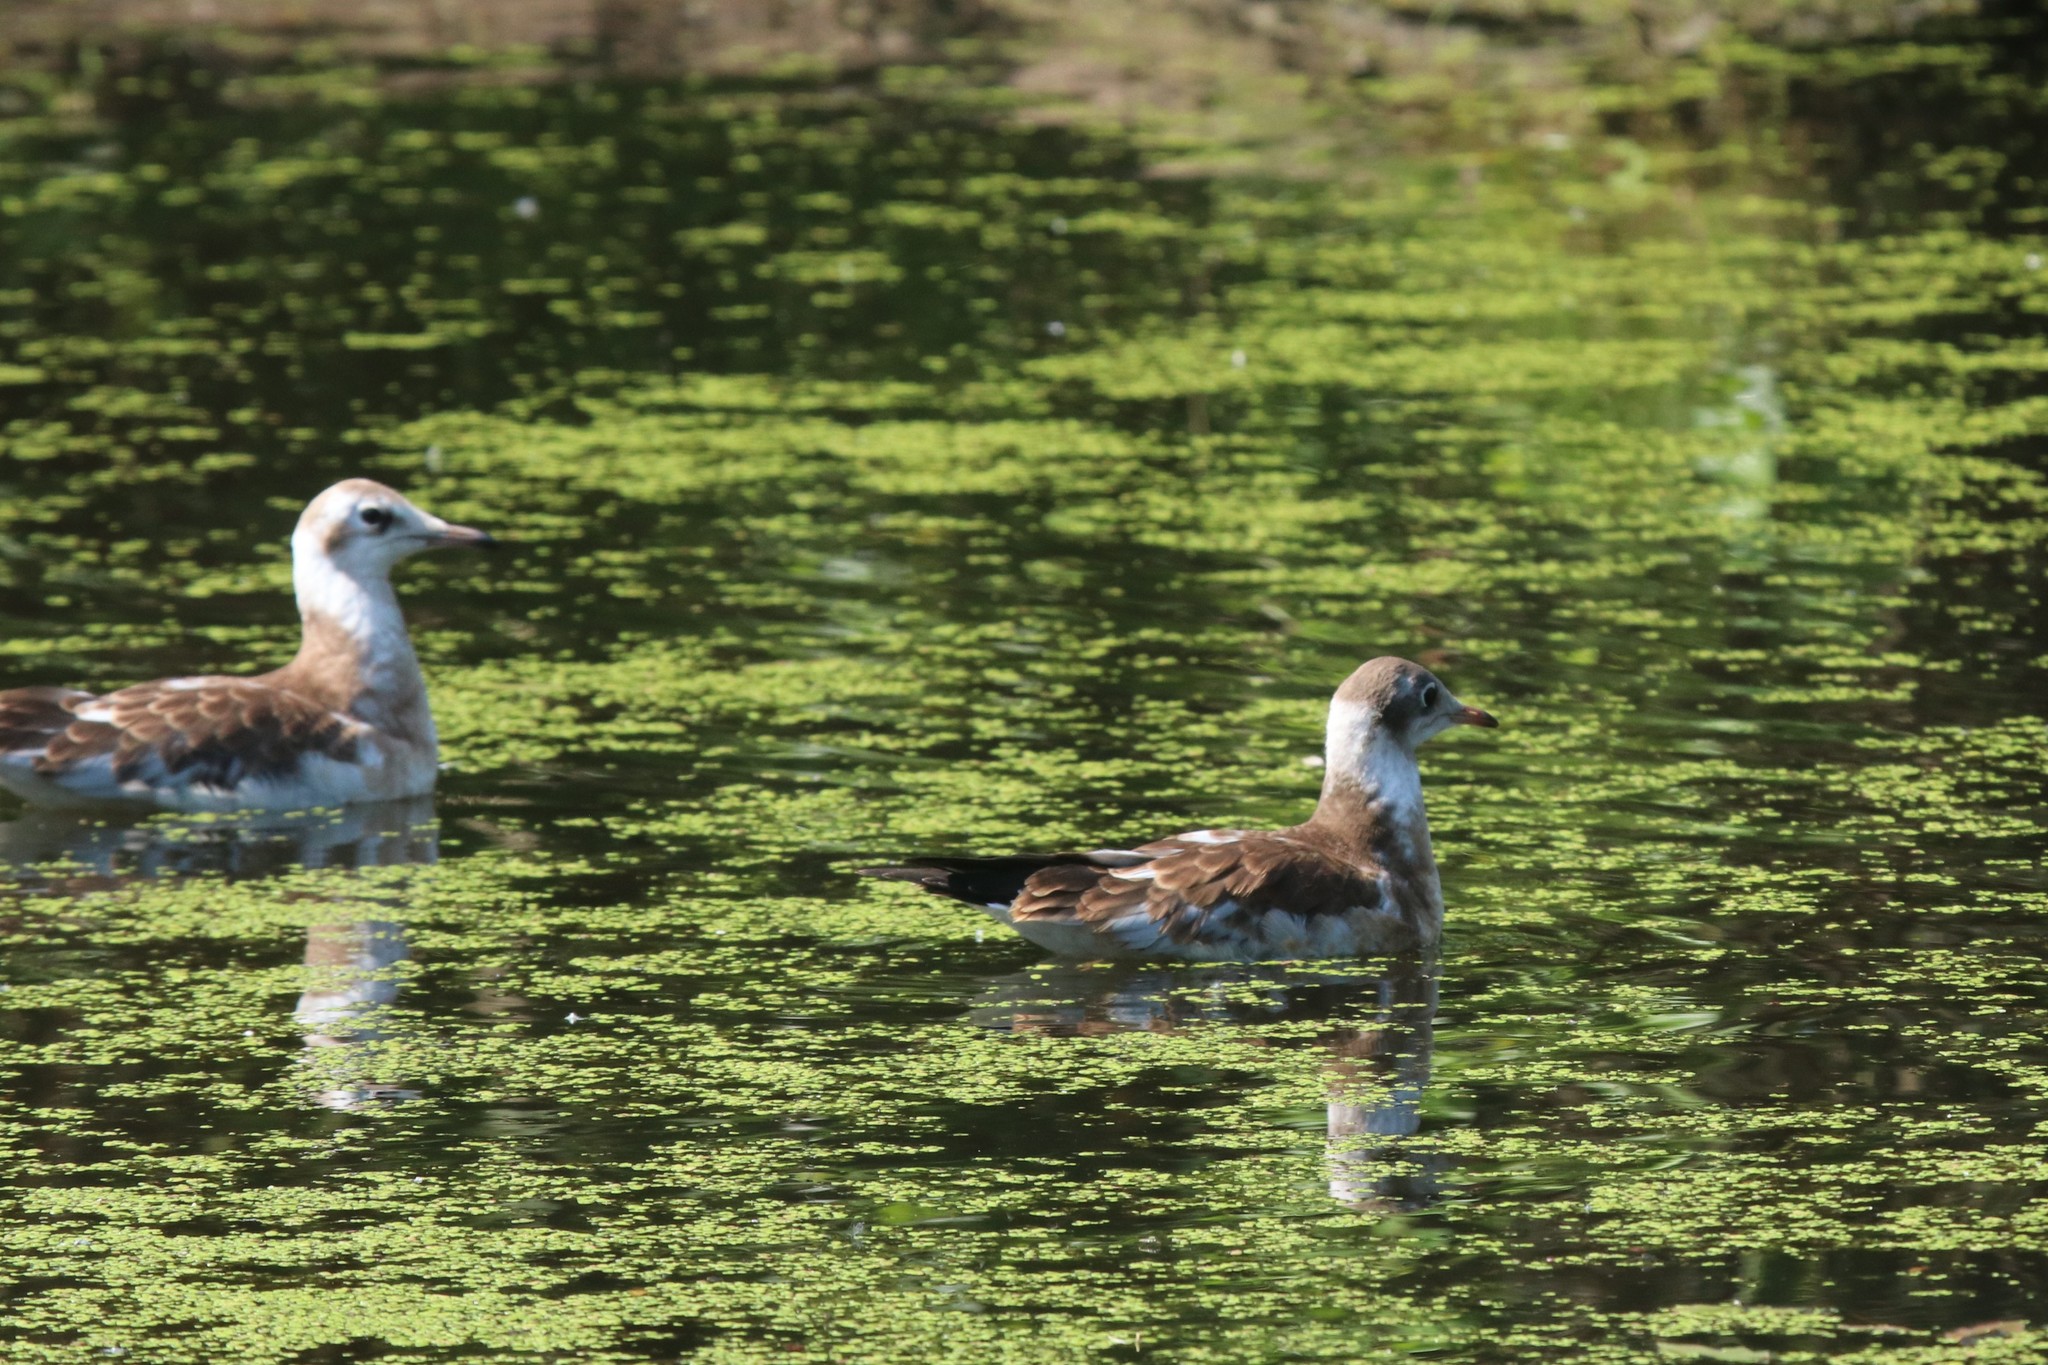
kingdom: Animalia
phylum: Chordata
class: Aves
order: Charadriiformes
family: Laridae
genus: Chroicocephalus
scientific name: Chroicocephalus ridibundus
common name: Black-headed gull
